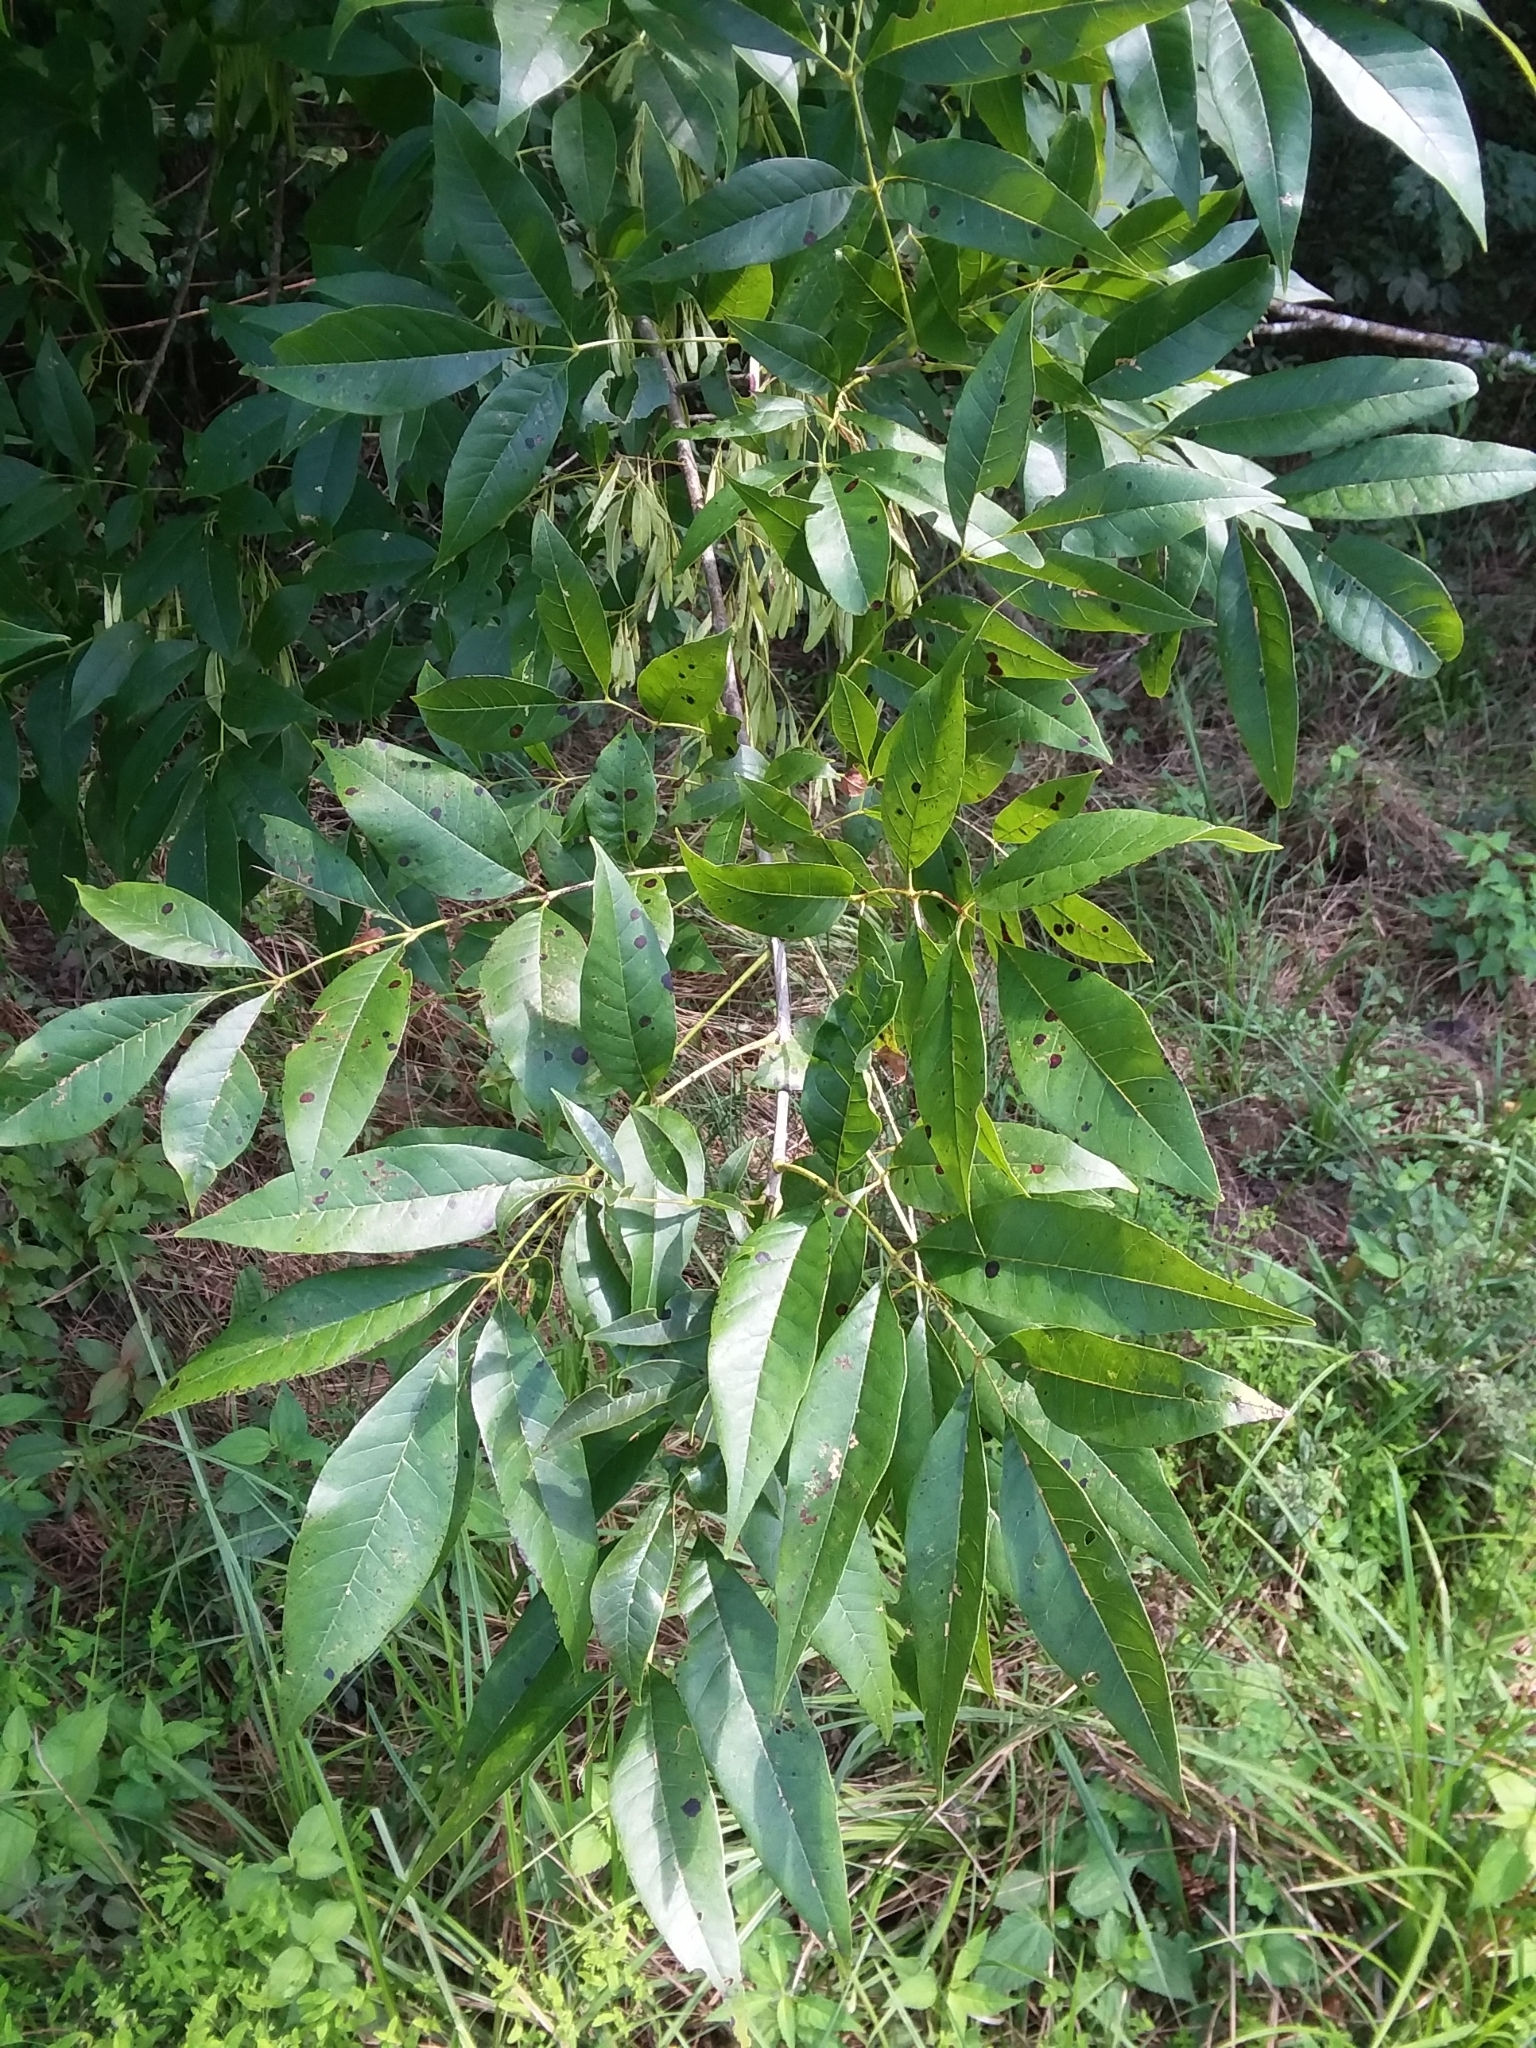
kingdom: Plantae
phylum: Tracheophyta
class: Magnoliopsida
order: Lamiales
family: Oleaceae
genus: Fraxinus
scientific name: Fraxinus pennsylvanica
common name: Green ash
